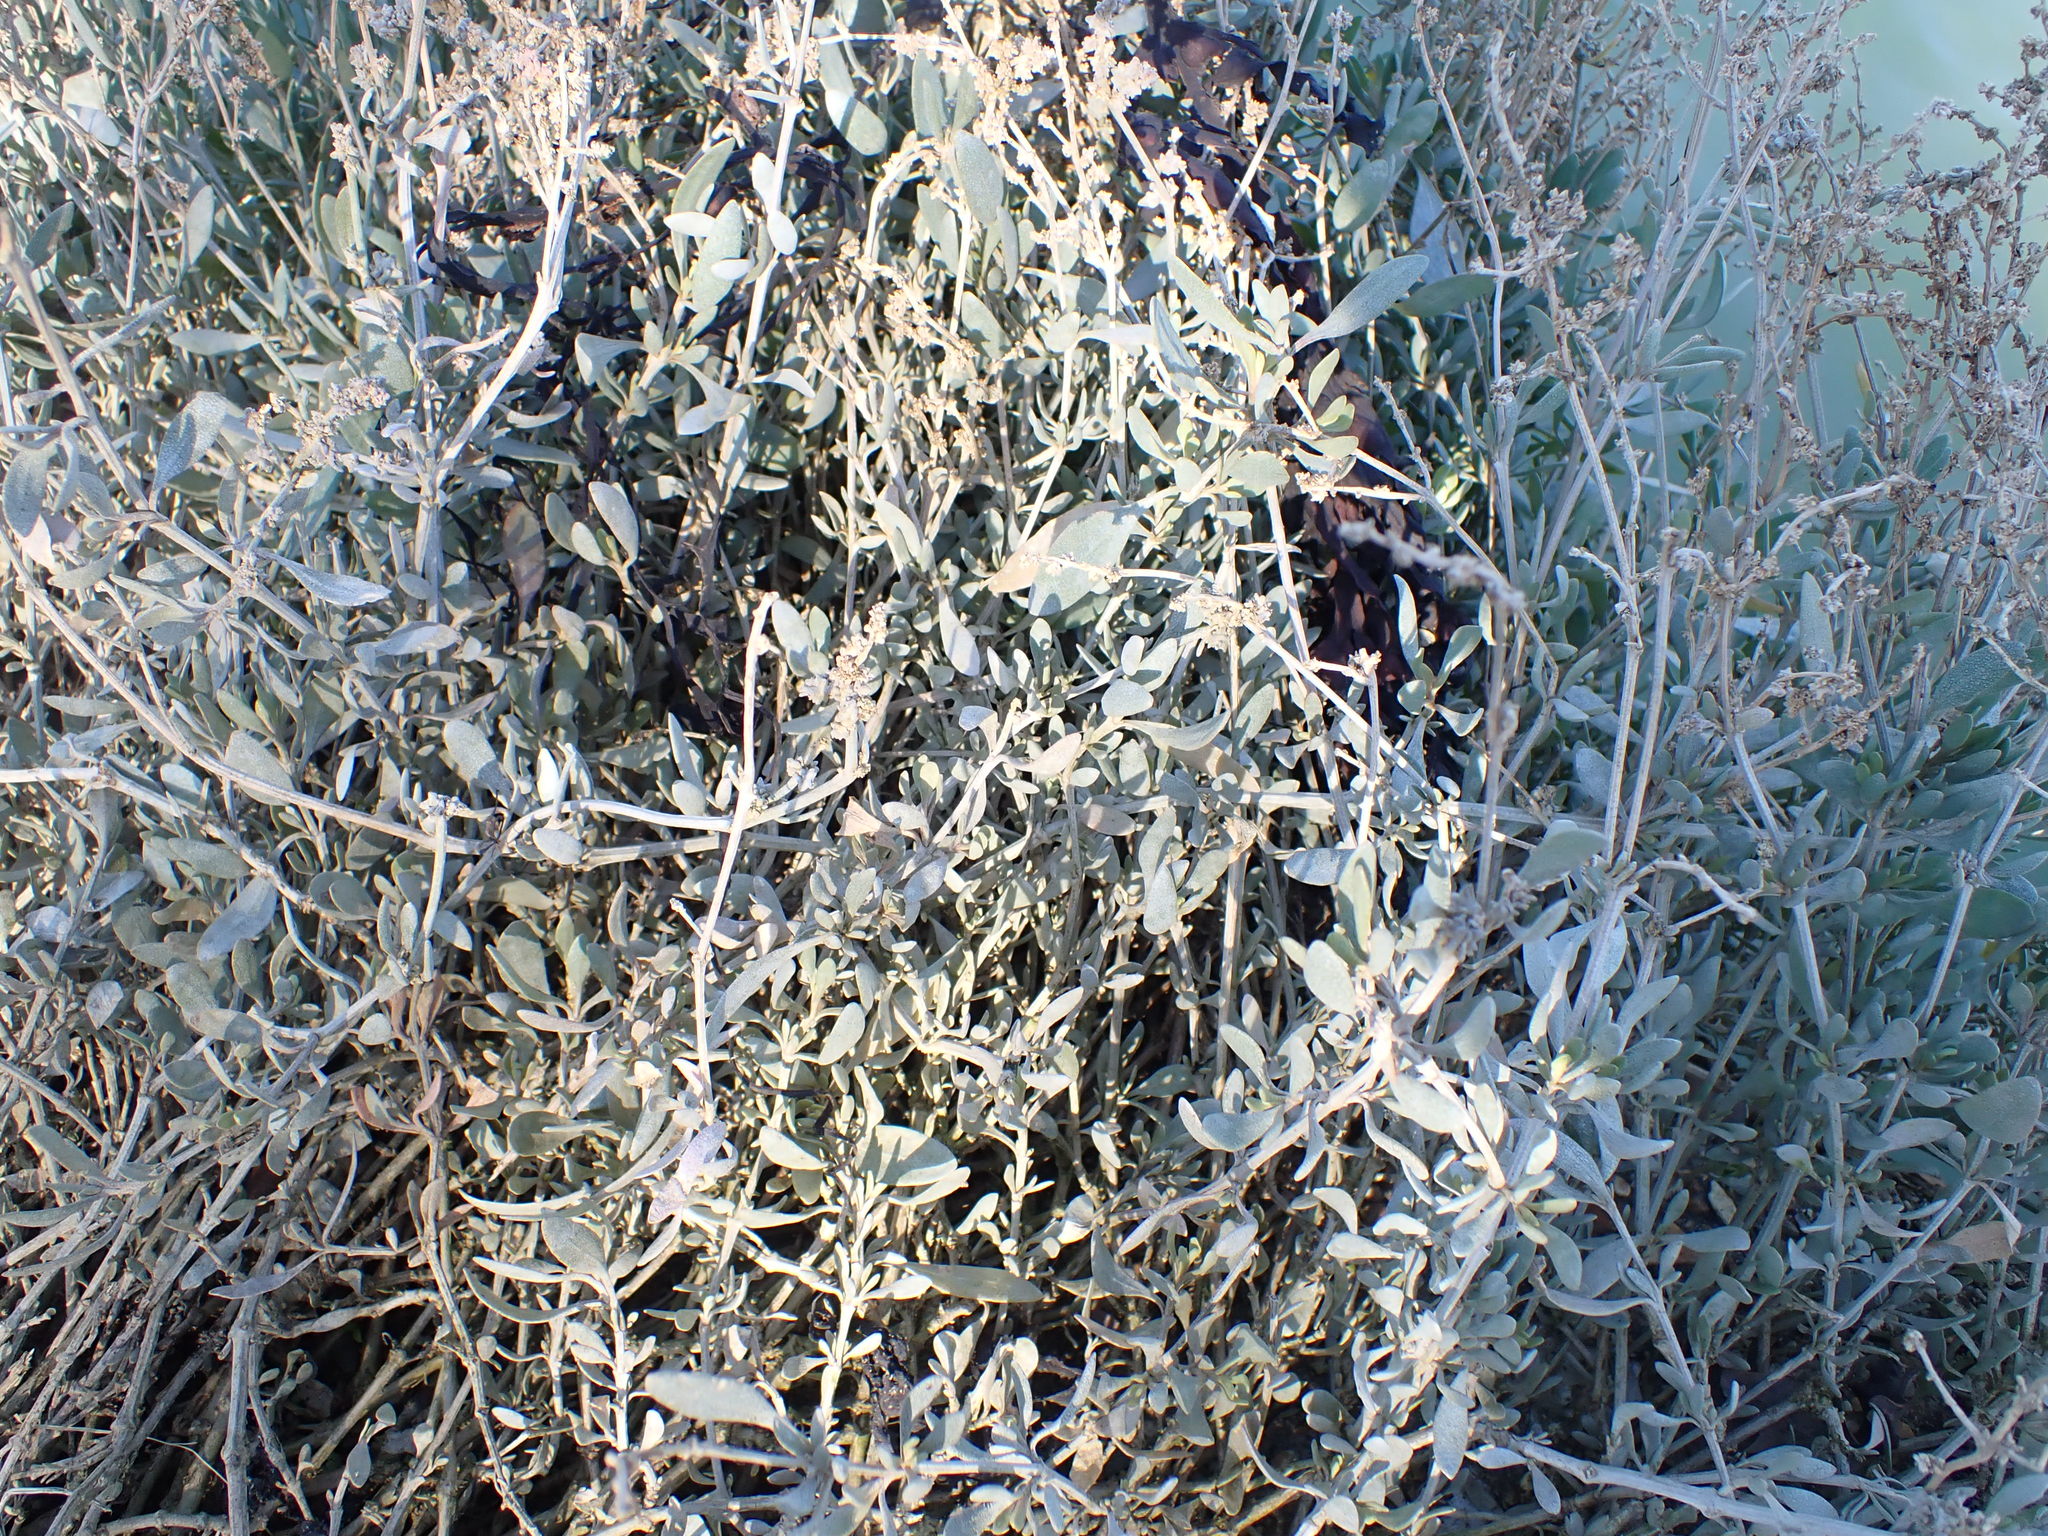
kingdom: Plantae
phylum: Tracheophyta
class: Magnoliopsida
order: Caryophyllales
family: Amaranthaceae
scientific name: Amaranthaceae
